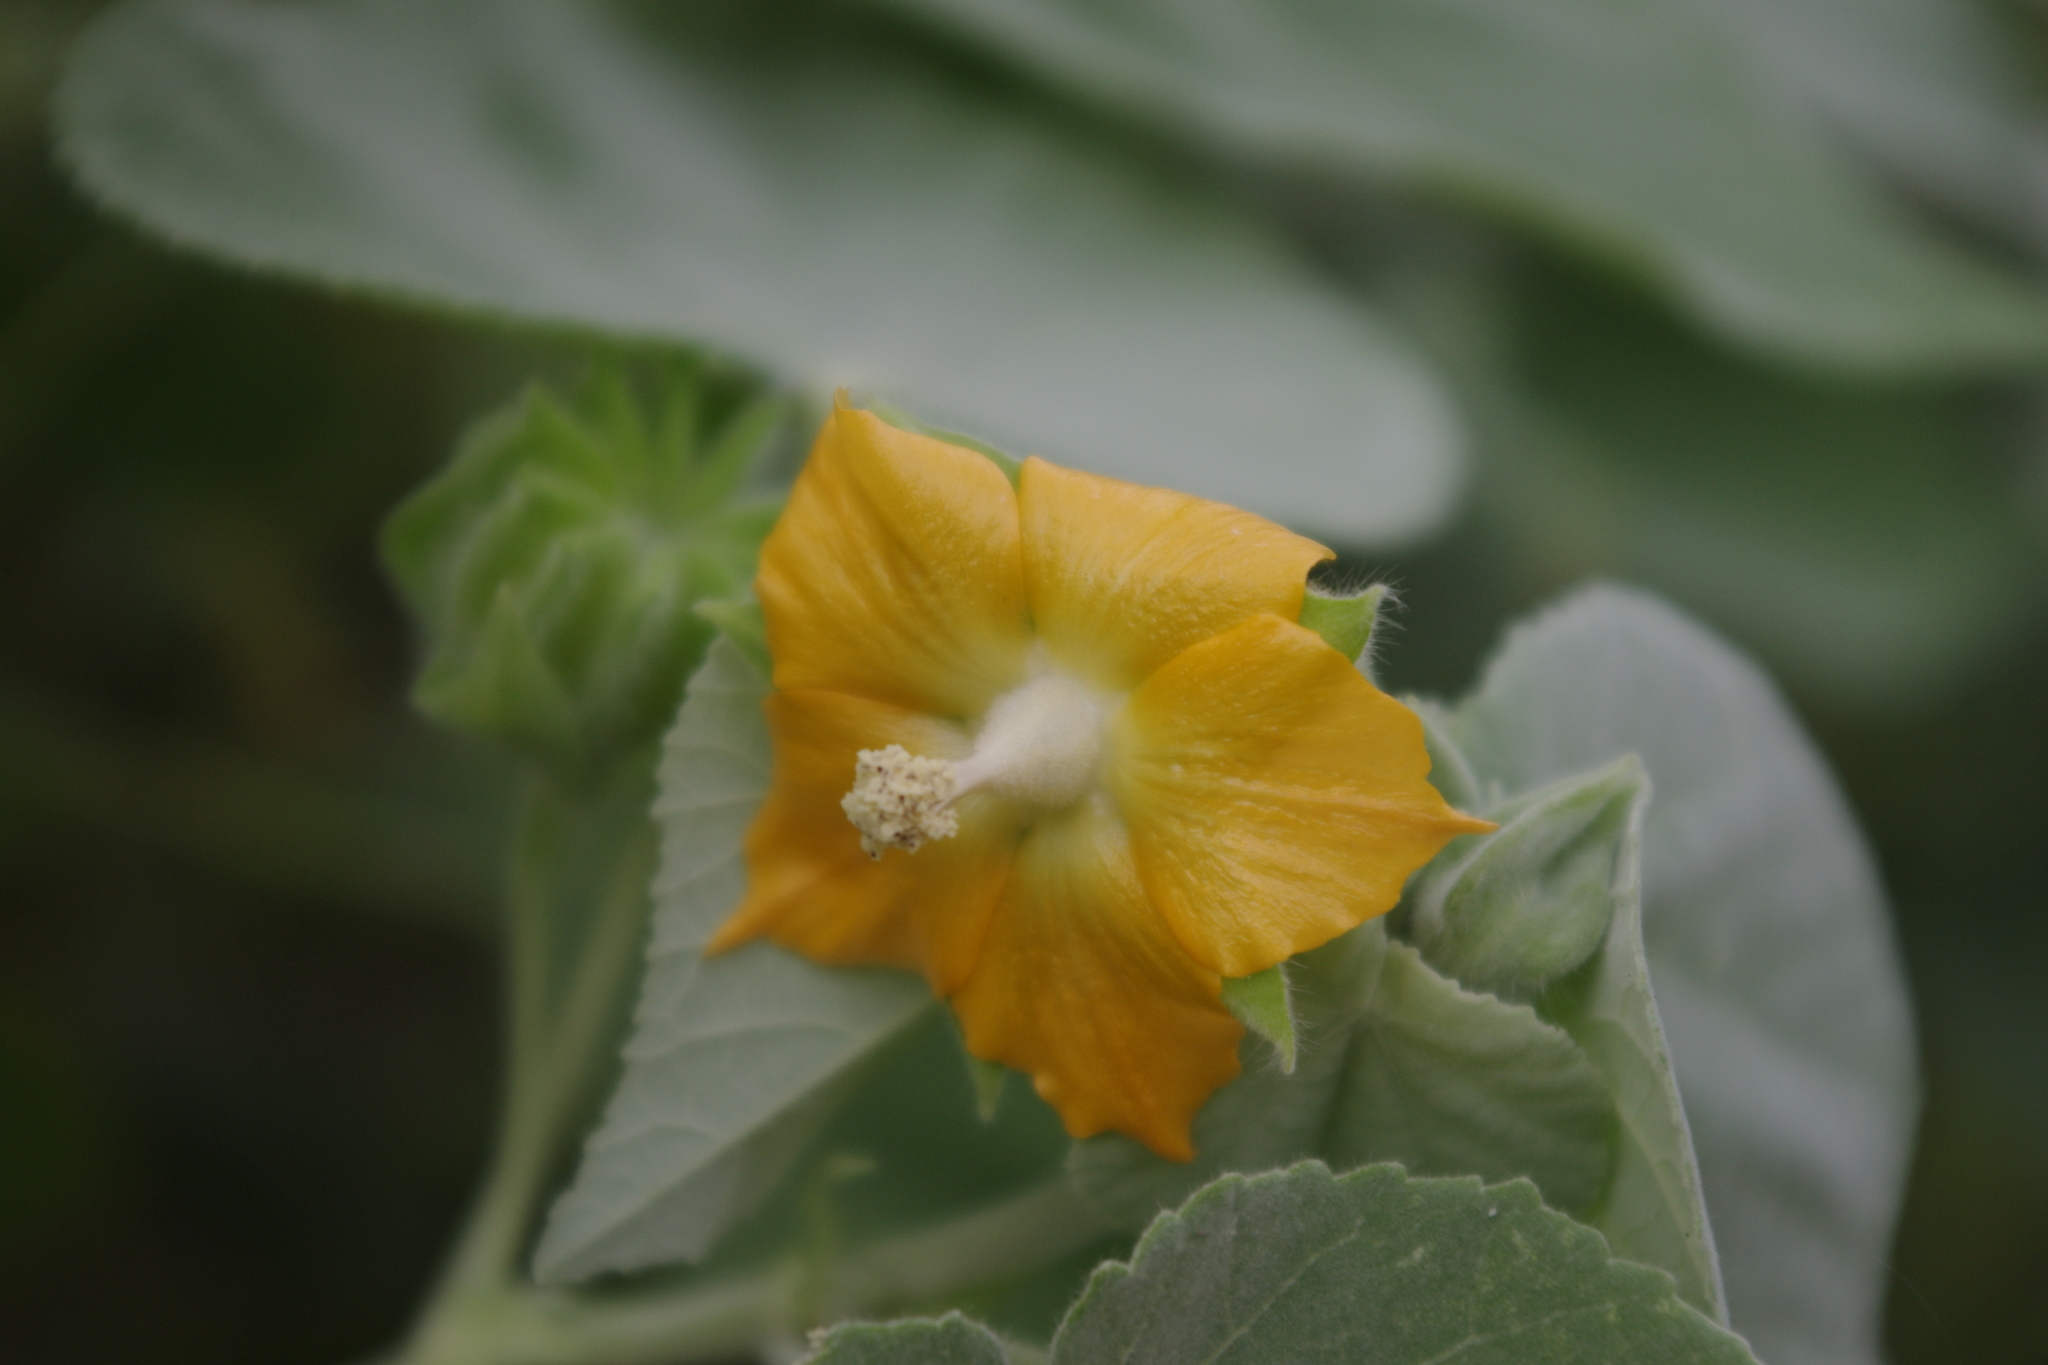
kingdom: Plantae
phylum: Tracheophyta
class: Magnoliopsida
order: Malvales
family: Malvaceae
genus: Abutilon
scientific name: Abutilon auritum
